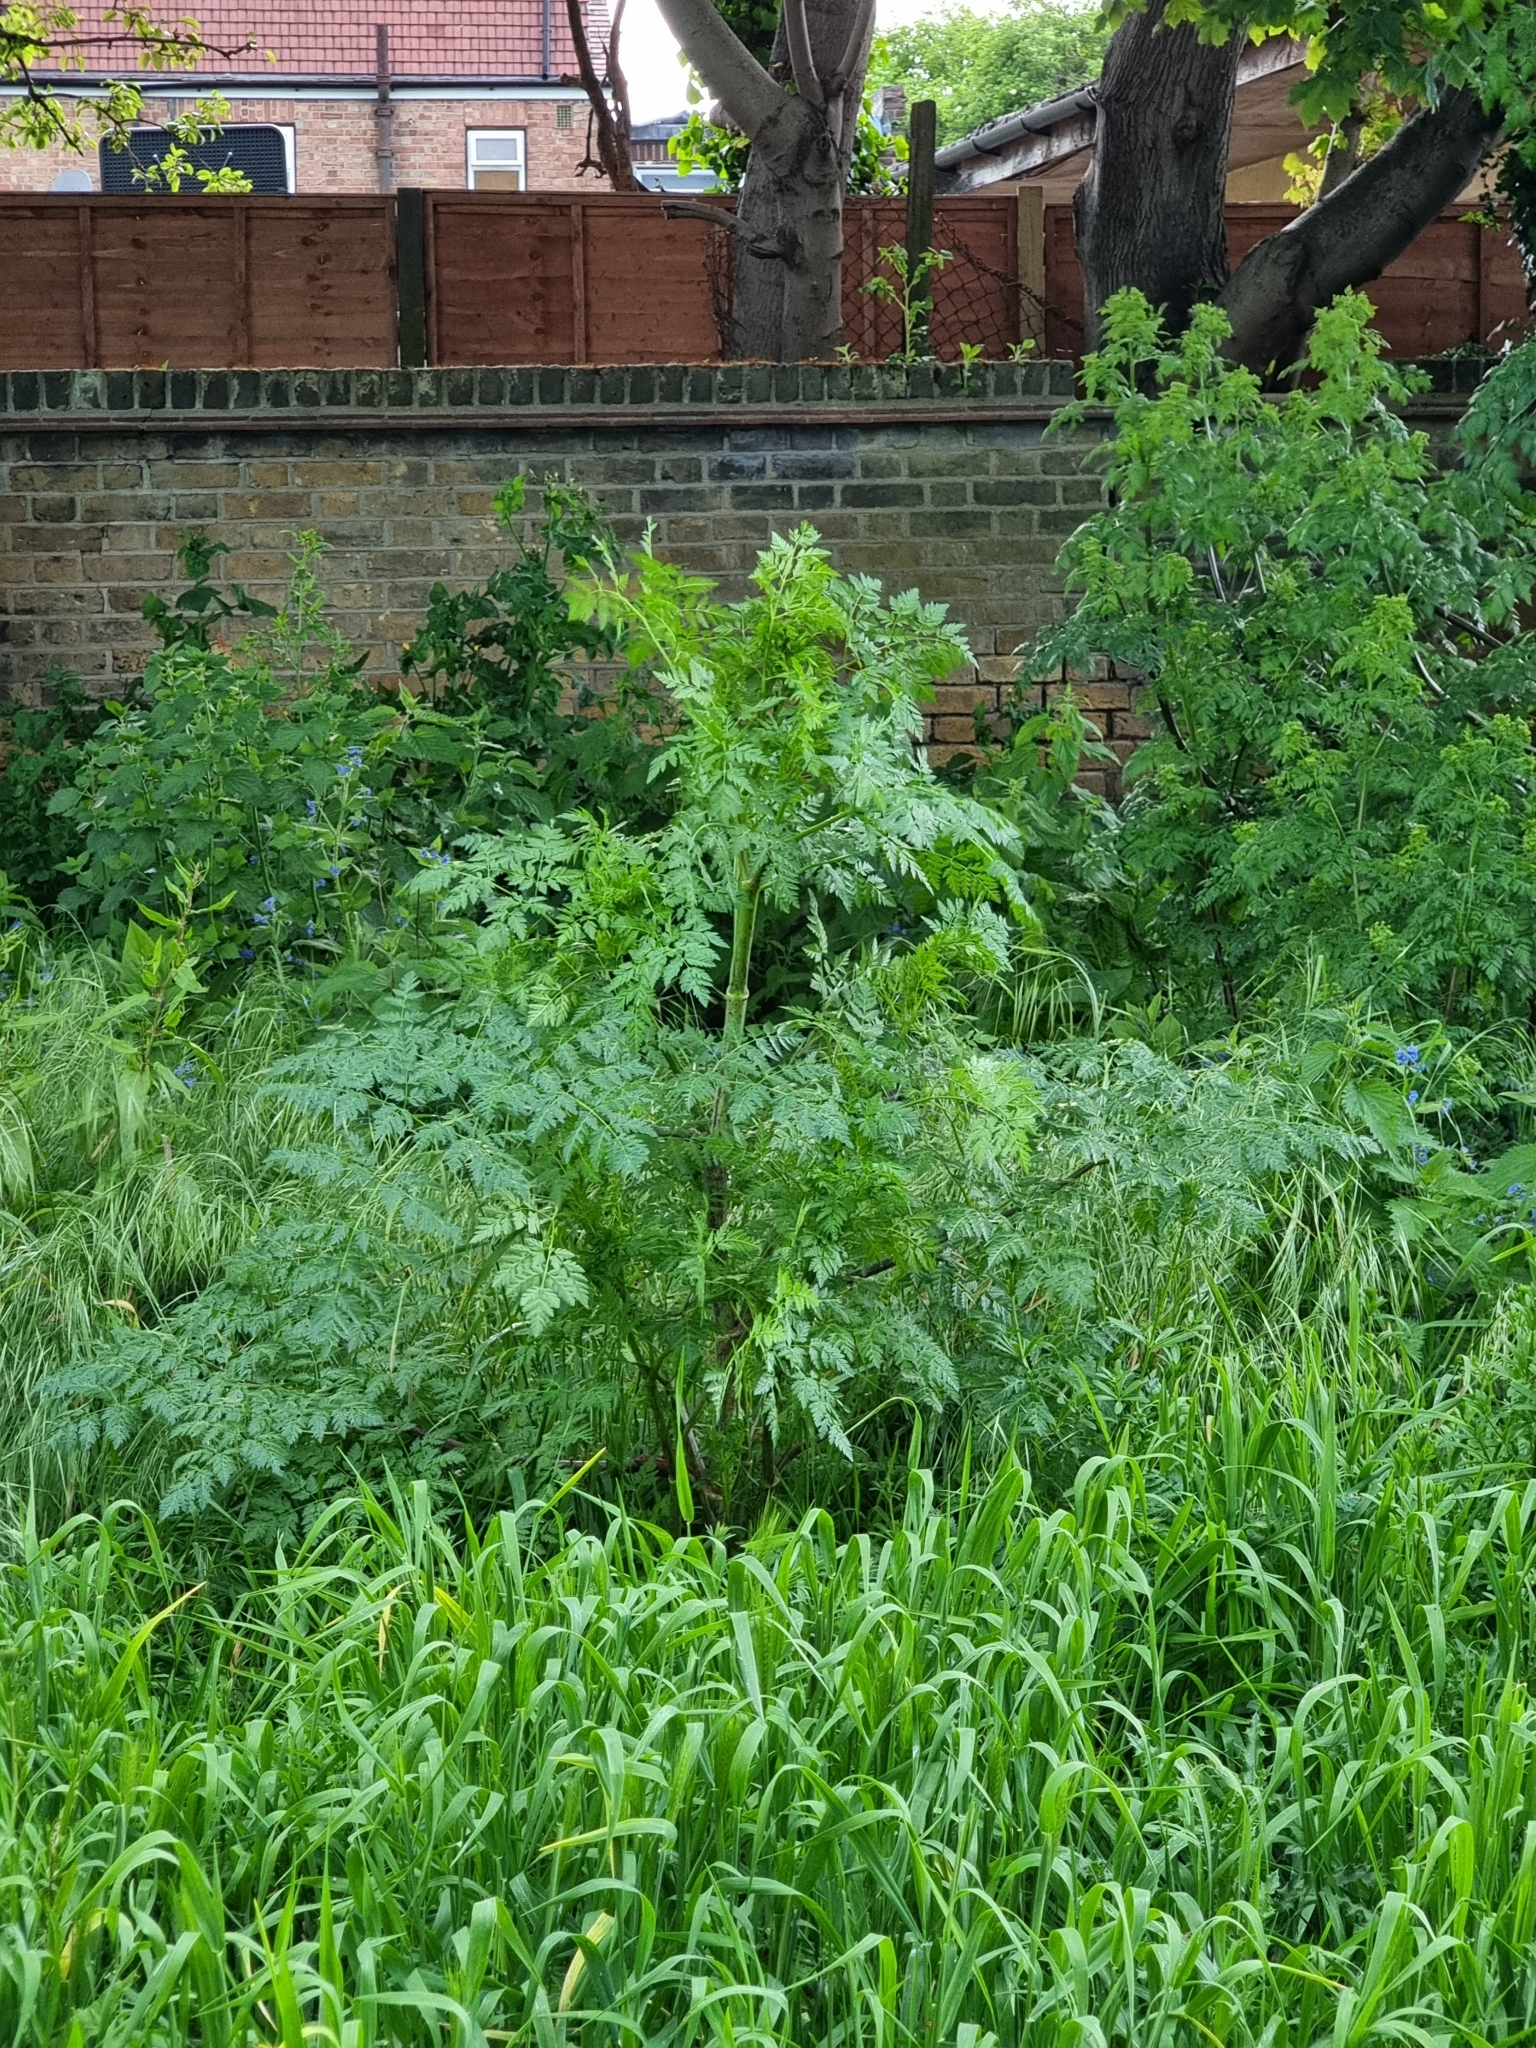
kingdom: Plantae
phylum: Tracheophyta
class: Magnoliopsida
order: Apiales
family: Apiaceae
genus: Conium
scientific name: Conium maculatum
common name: Hemlock
